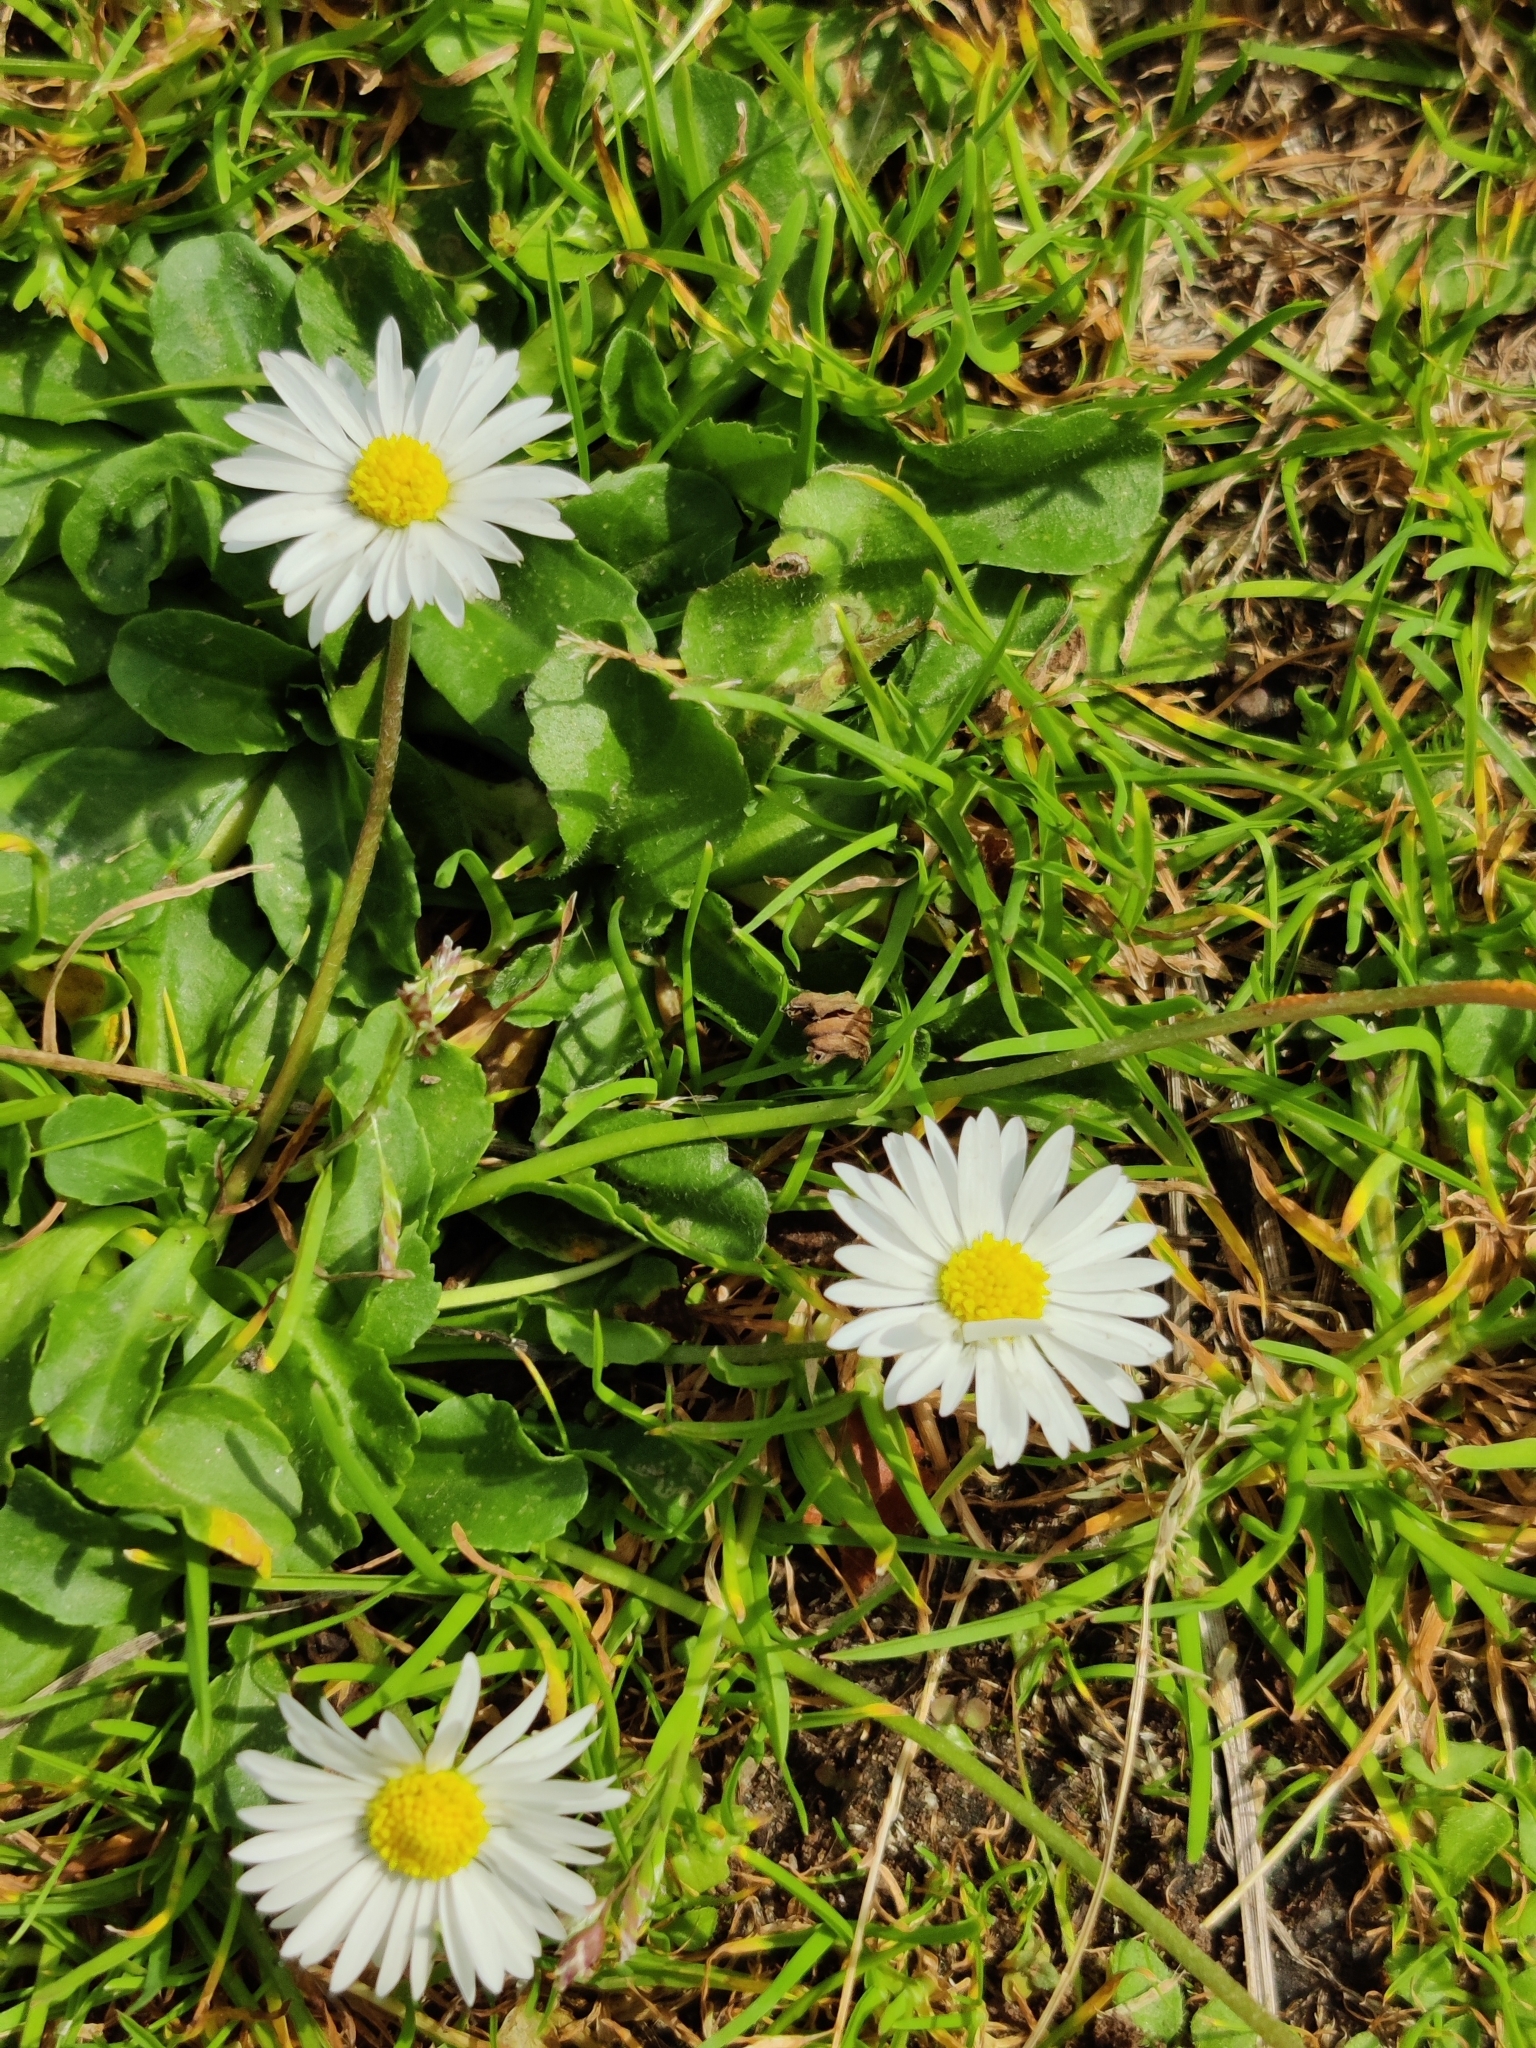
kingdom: Plantae
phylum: Tracheophyta
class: Magnoliopsida
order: Asterales
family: Asteraceae
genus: Bellis
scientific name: Bellis perennis
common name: Lawndaisy
